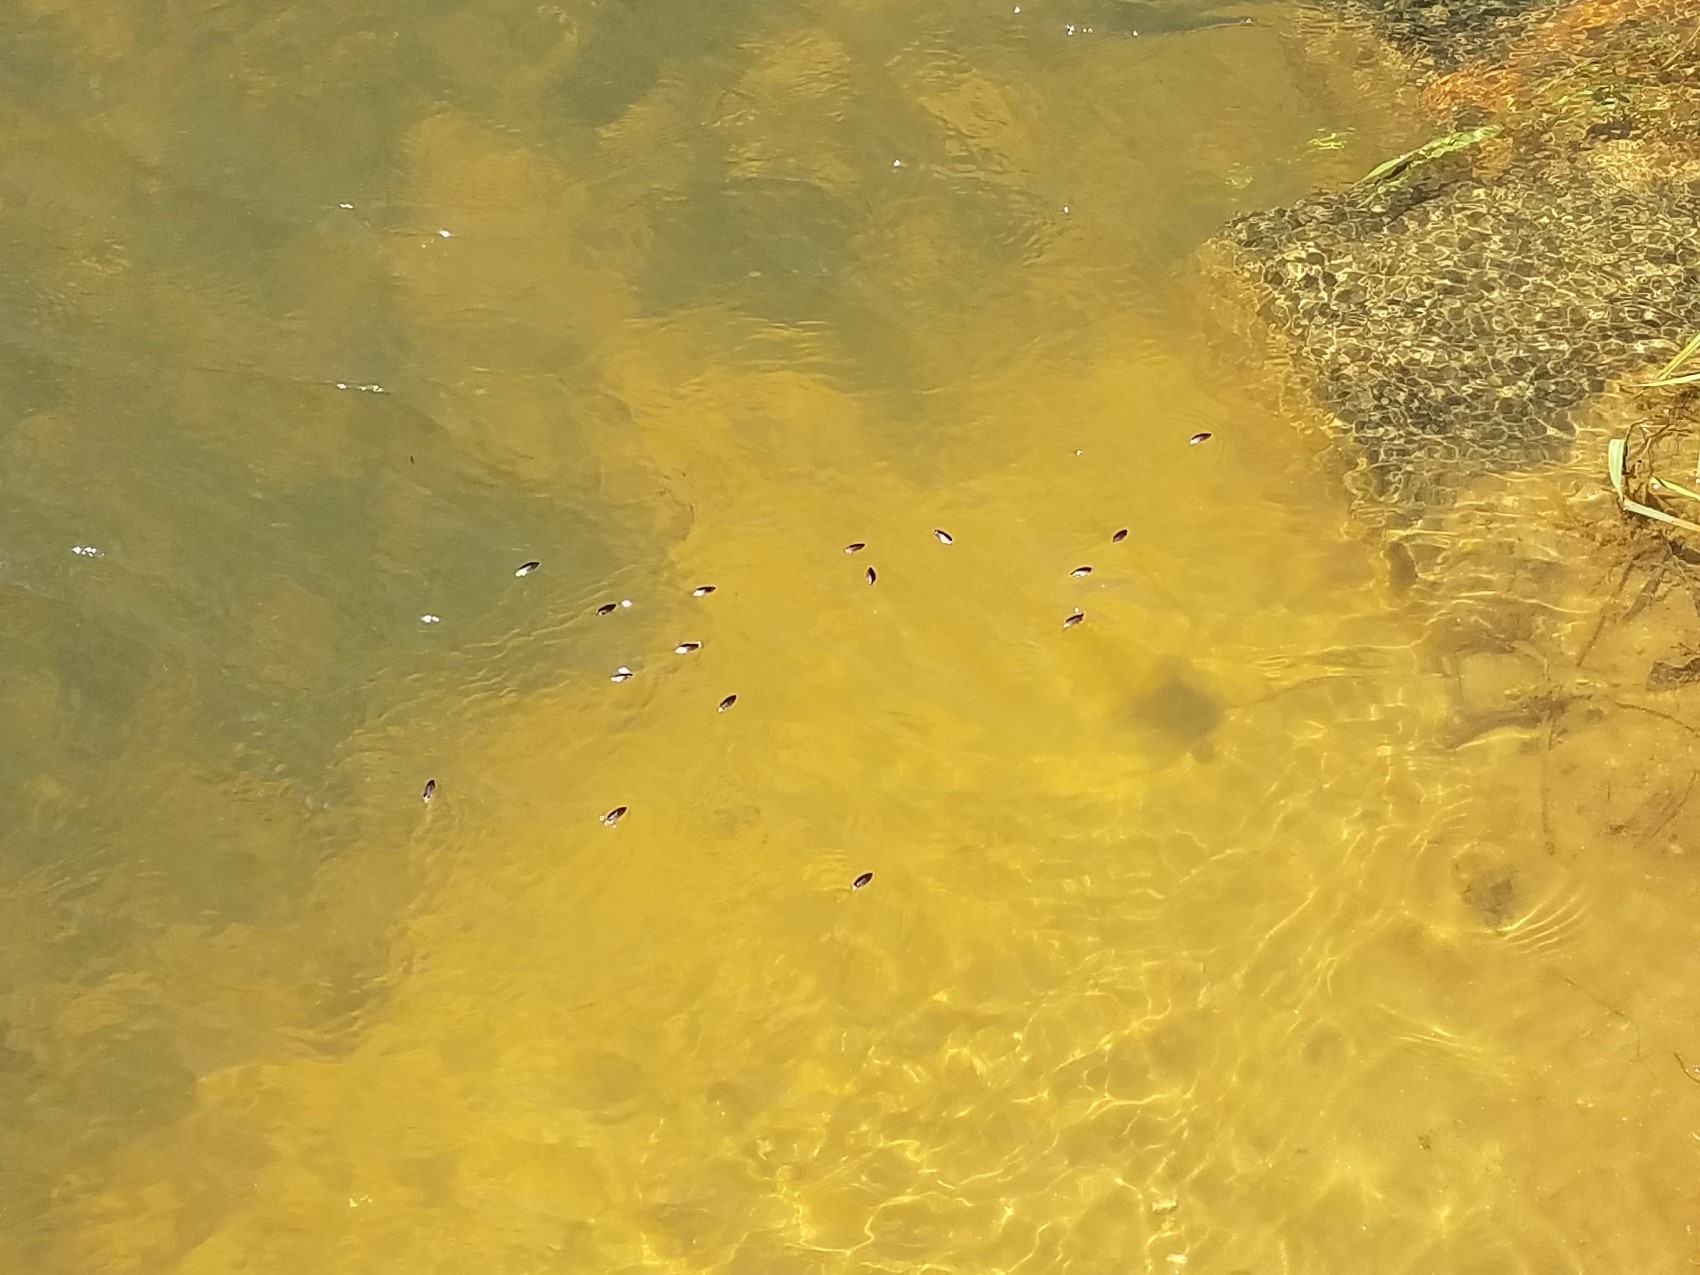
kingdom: Animalia
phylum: Arthropoda
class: Insecta
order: Coleoptera
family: Gyrinidae
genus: Dineutus
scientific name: Dineutus discolor
